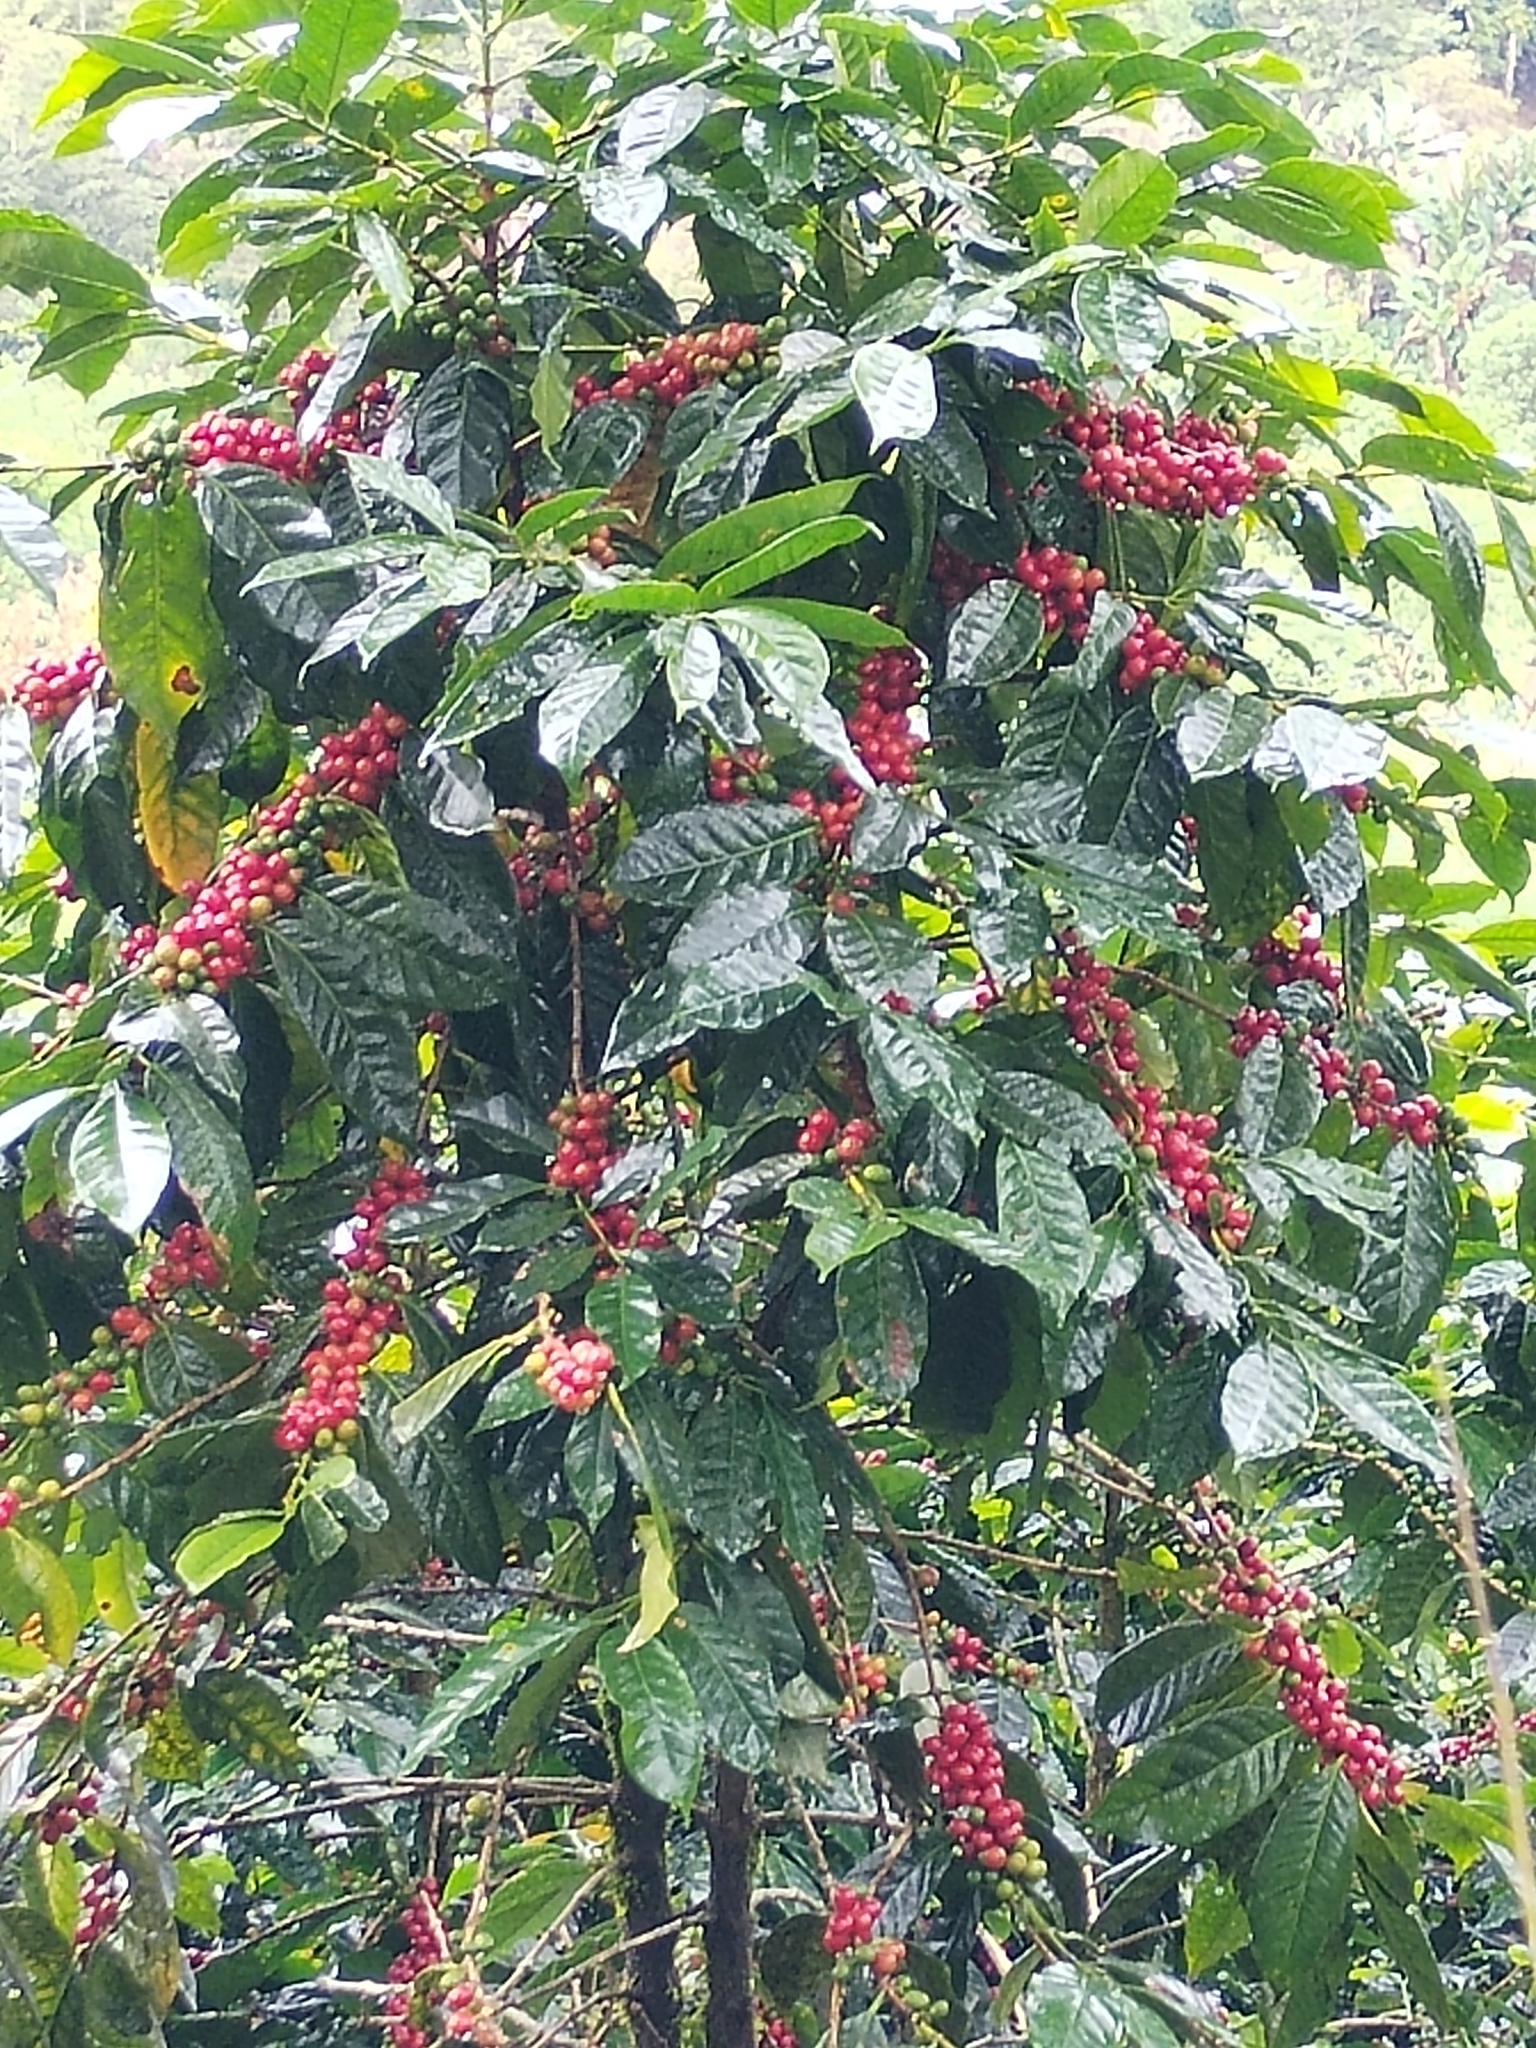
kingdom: Plantae
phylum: Tracheophyta
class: Magnoliopsida
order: Gentianales
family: Rubiaceae
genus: Coffea
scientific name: Coffea arabica
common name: Coffee
